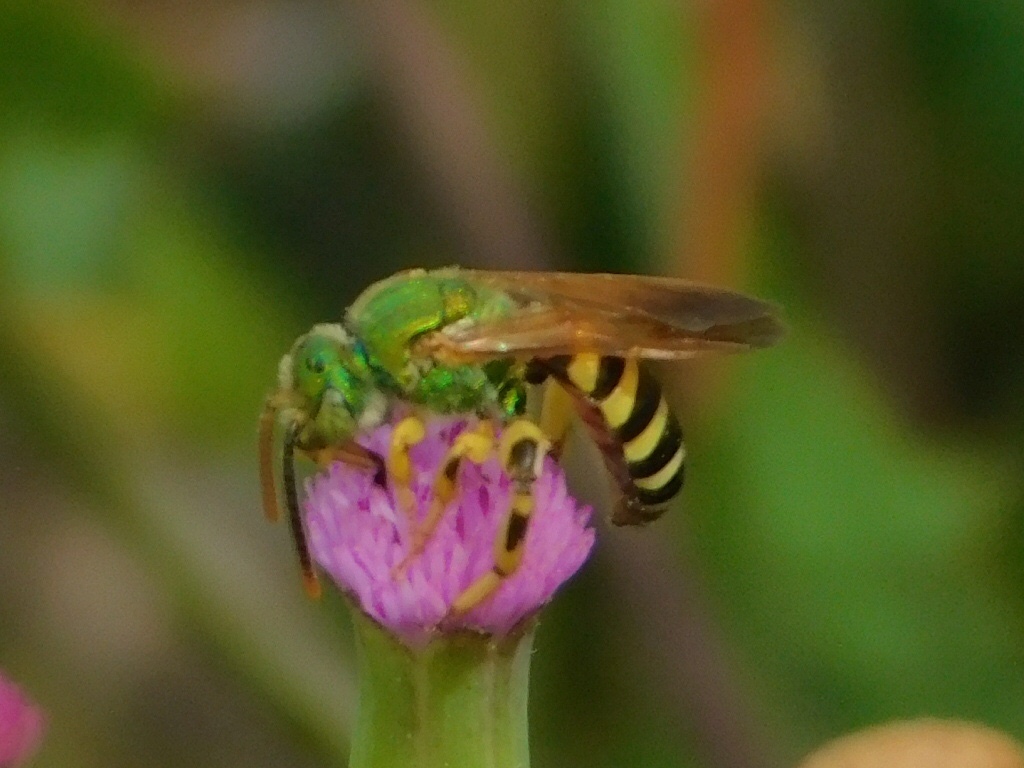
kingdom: Animalia
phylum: Arthropoda
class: Insecta
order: Hymenoptera
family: Halictidae
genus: Agapostemon
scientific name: Agapostemon splendens
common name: Brown-winged striped sweat bee
